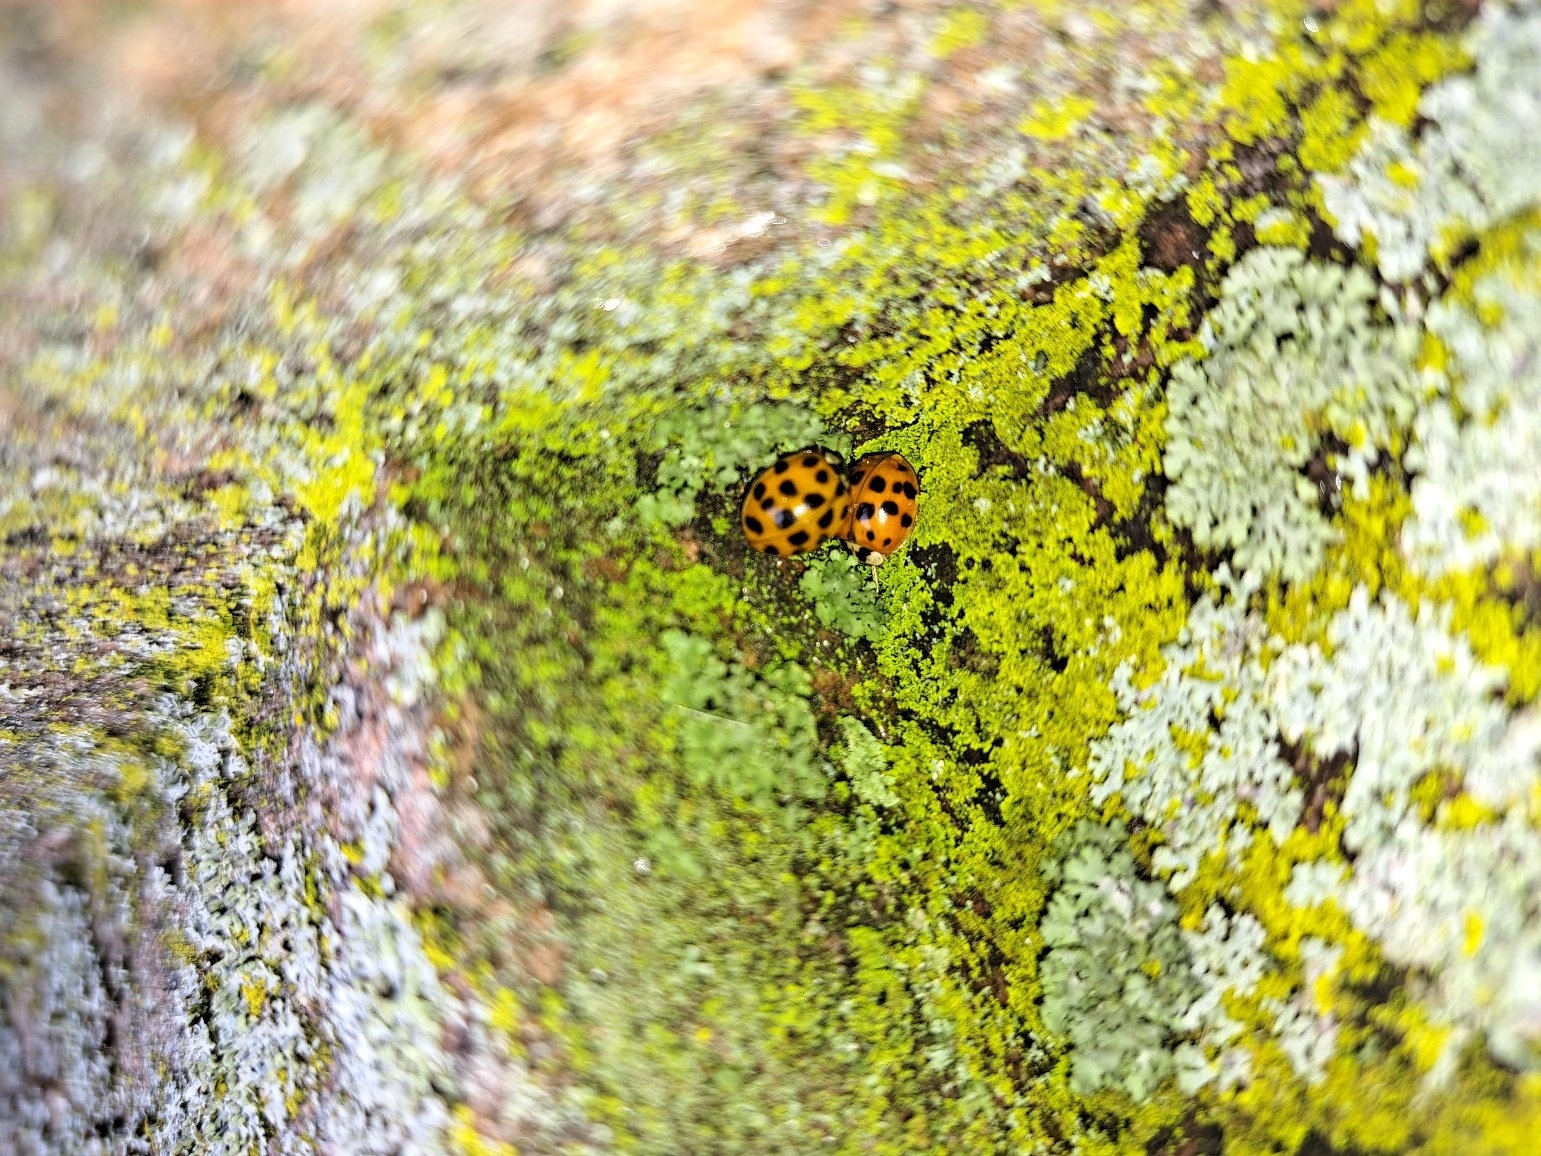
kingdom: Animalia
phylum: Arthropoda
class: Insecta
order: Coleoptera
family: Coccinellidae
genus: Harmonia
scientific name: Harmonia axyridis
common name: Harlequin ladybird
